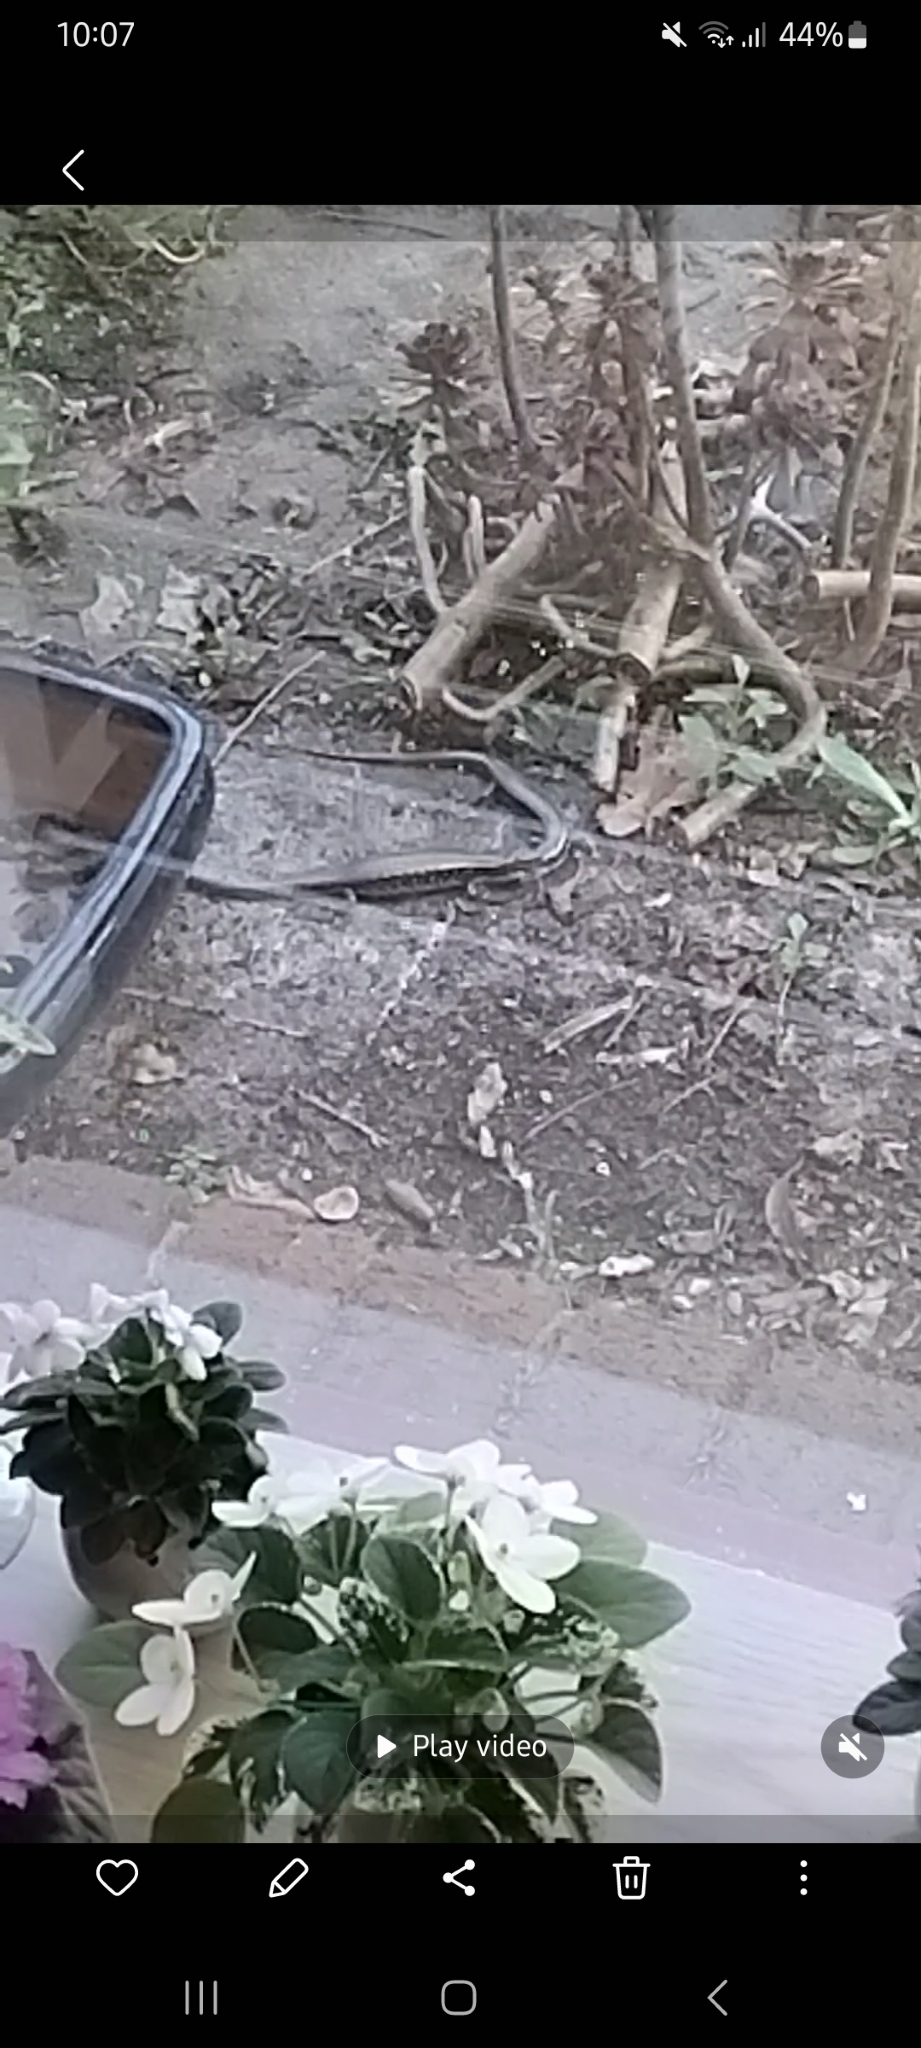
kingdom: Animalia
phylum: Chordata
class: Squamata
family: Scincidae
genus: Eulamprus
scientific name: Eulamprus quoyii
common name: Eastern water skink
